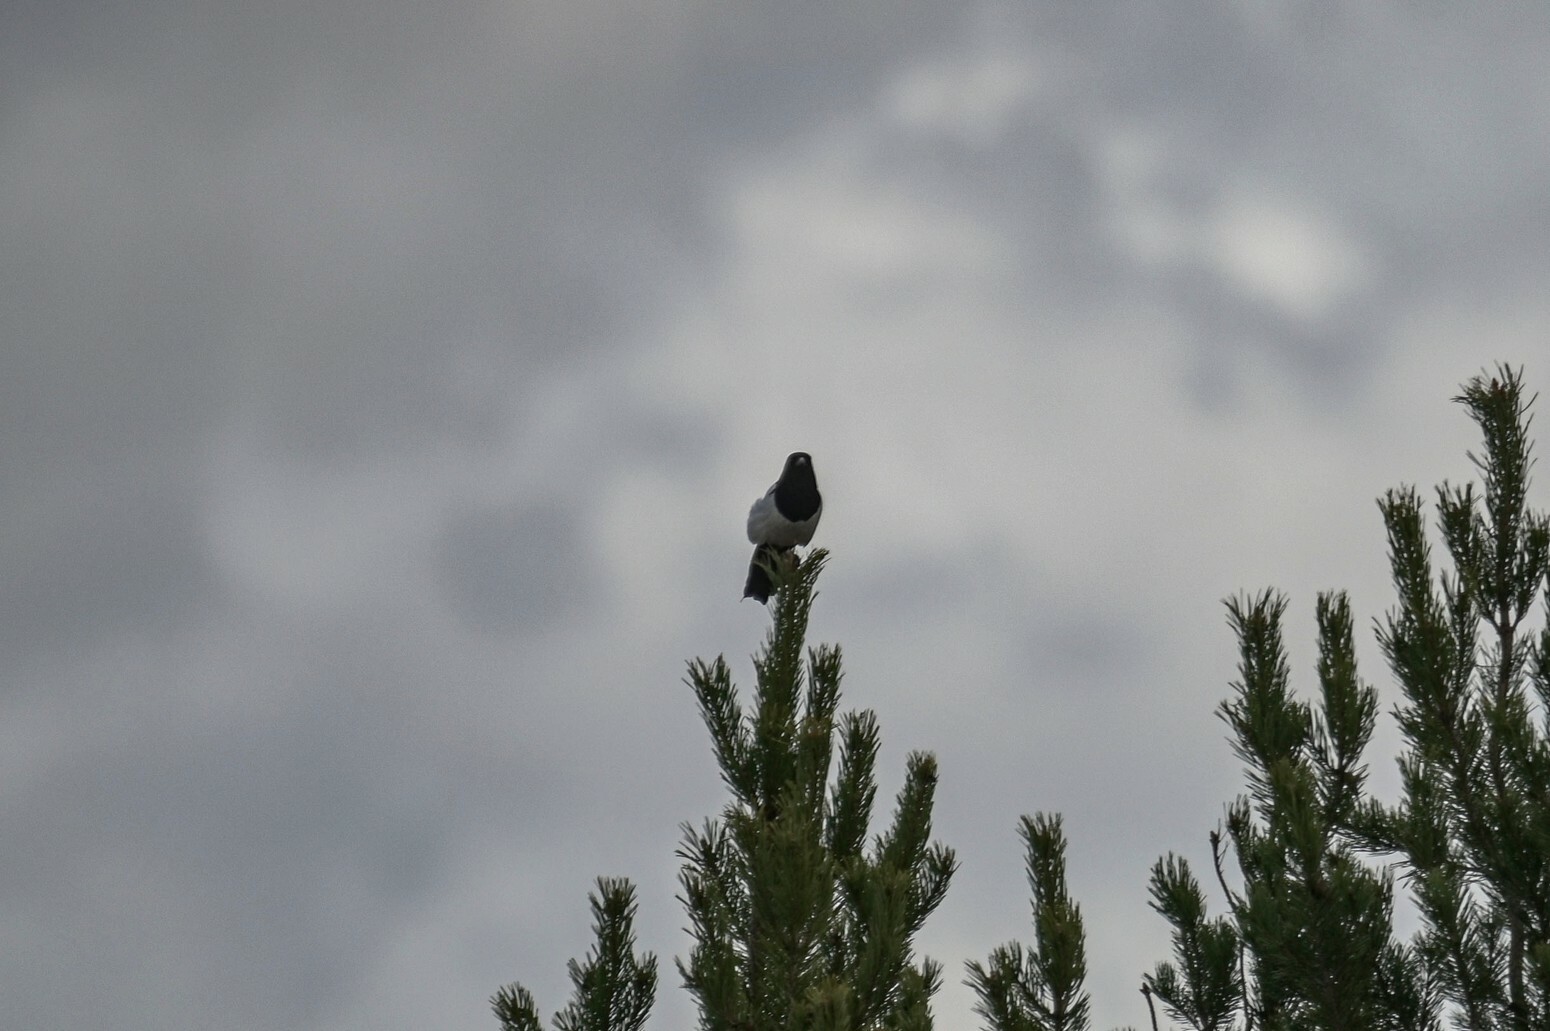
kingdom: Animalia
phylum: Chordata
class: Aves
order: Passeriformes
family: Corvidae
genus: Pica
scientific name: Pica pica
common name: Eurasian magpie
